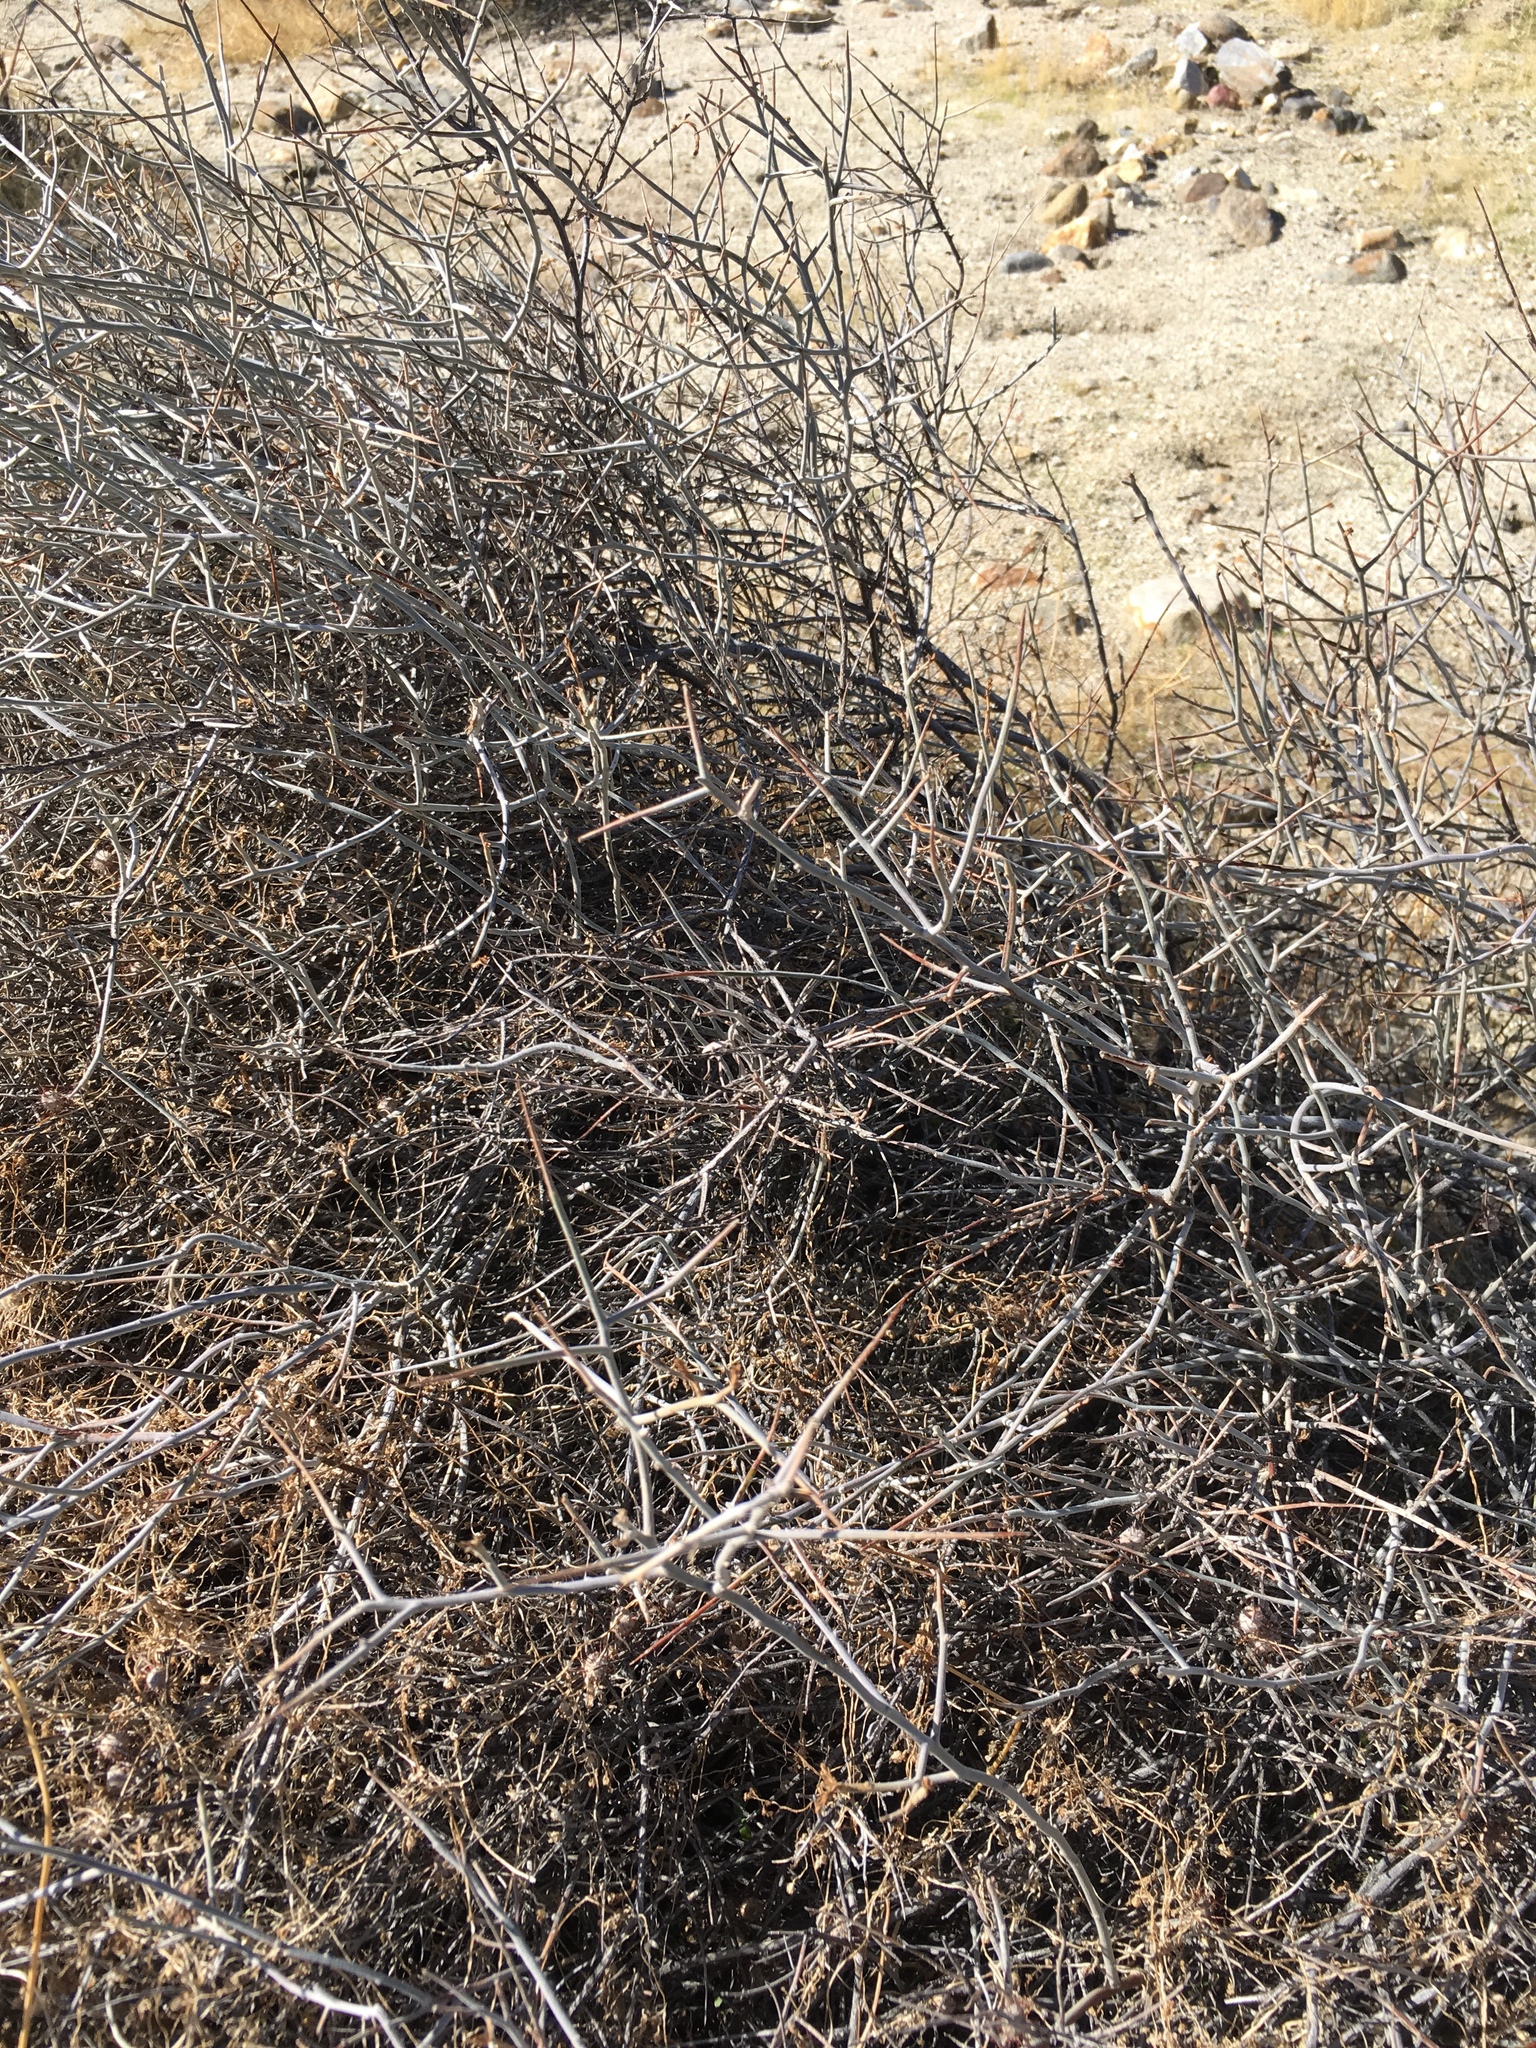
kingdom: Plantae
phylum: Tracheophyta
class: Magnoliopsida
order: Zygophyllales
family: Krameriaceae
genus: Krameria
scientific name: Krameria bicolor
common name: White ratany
